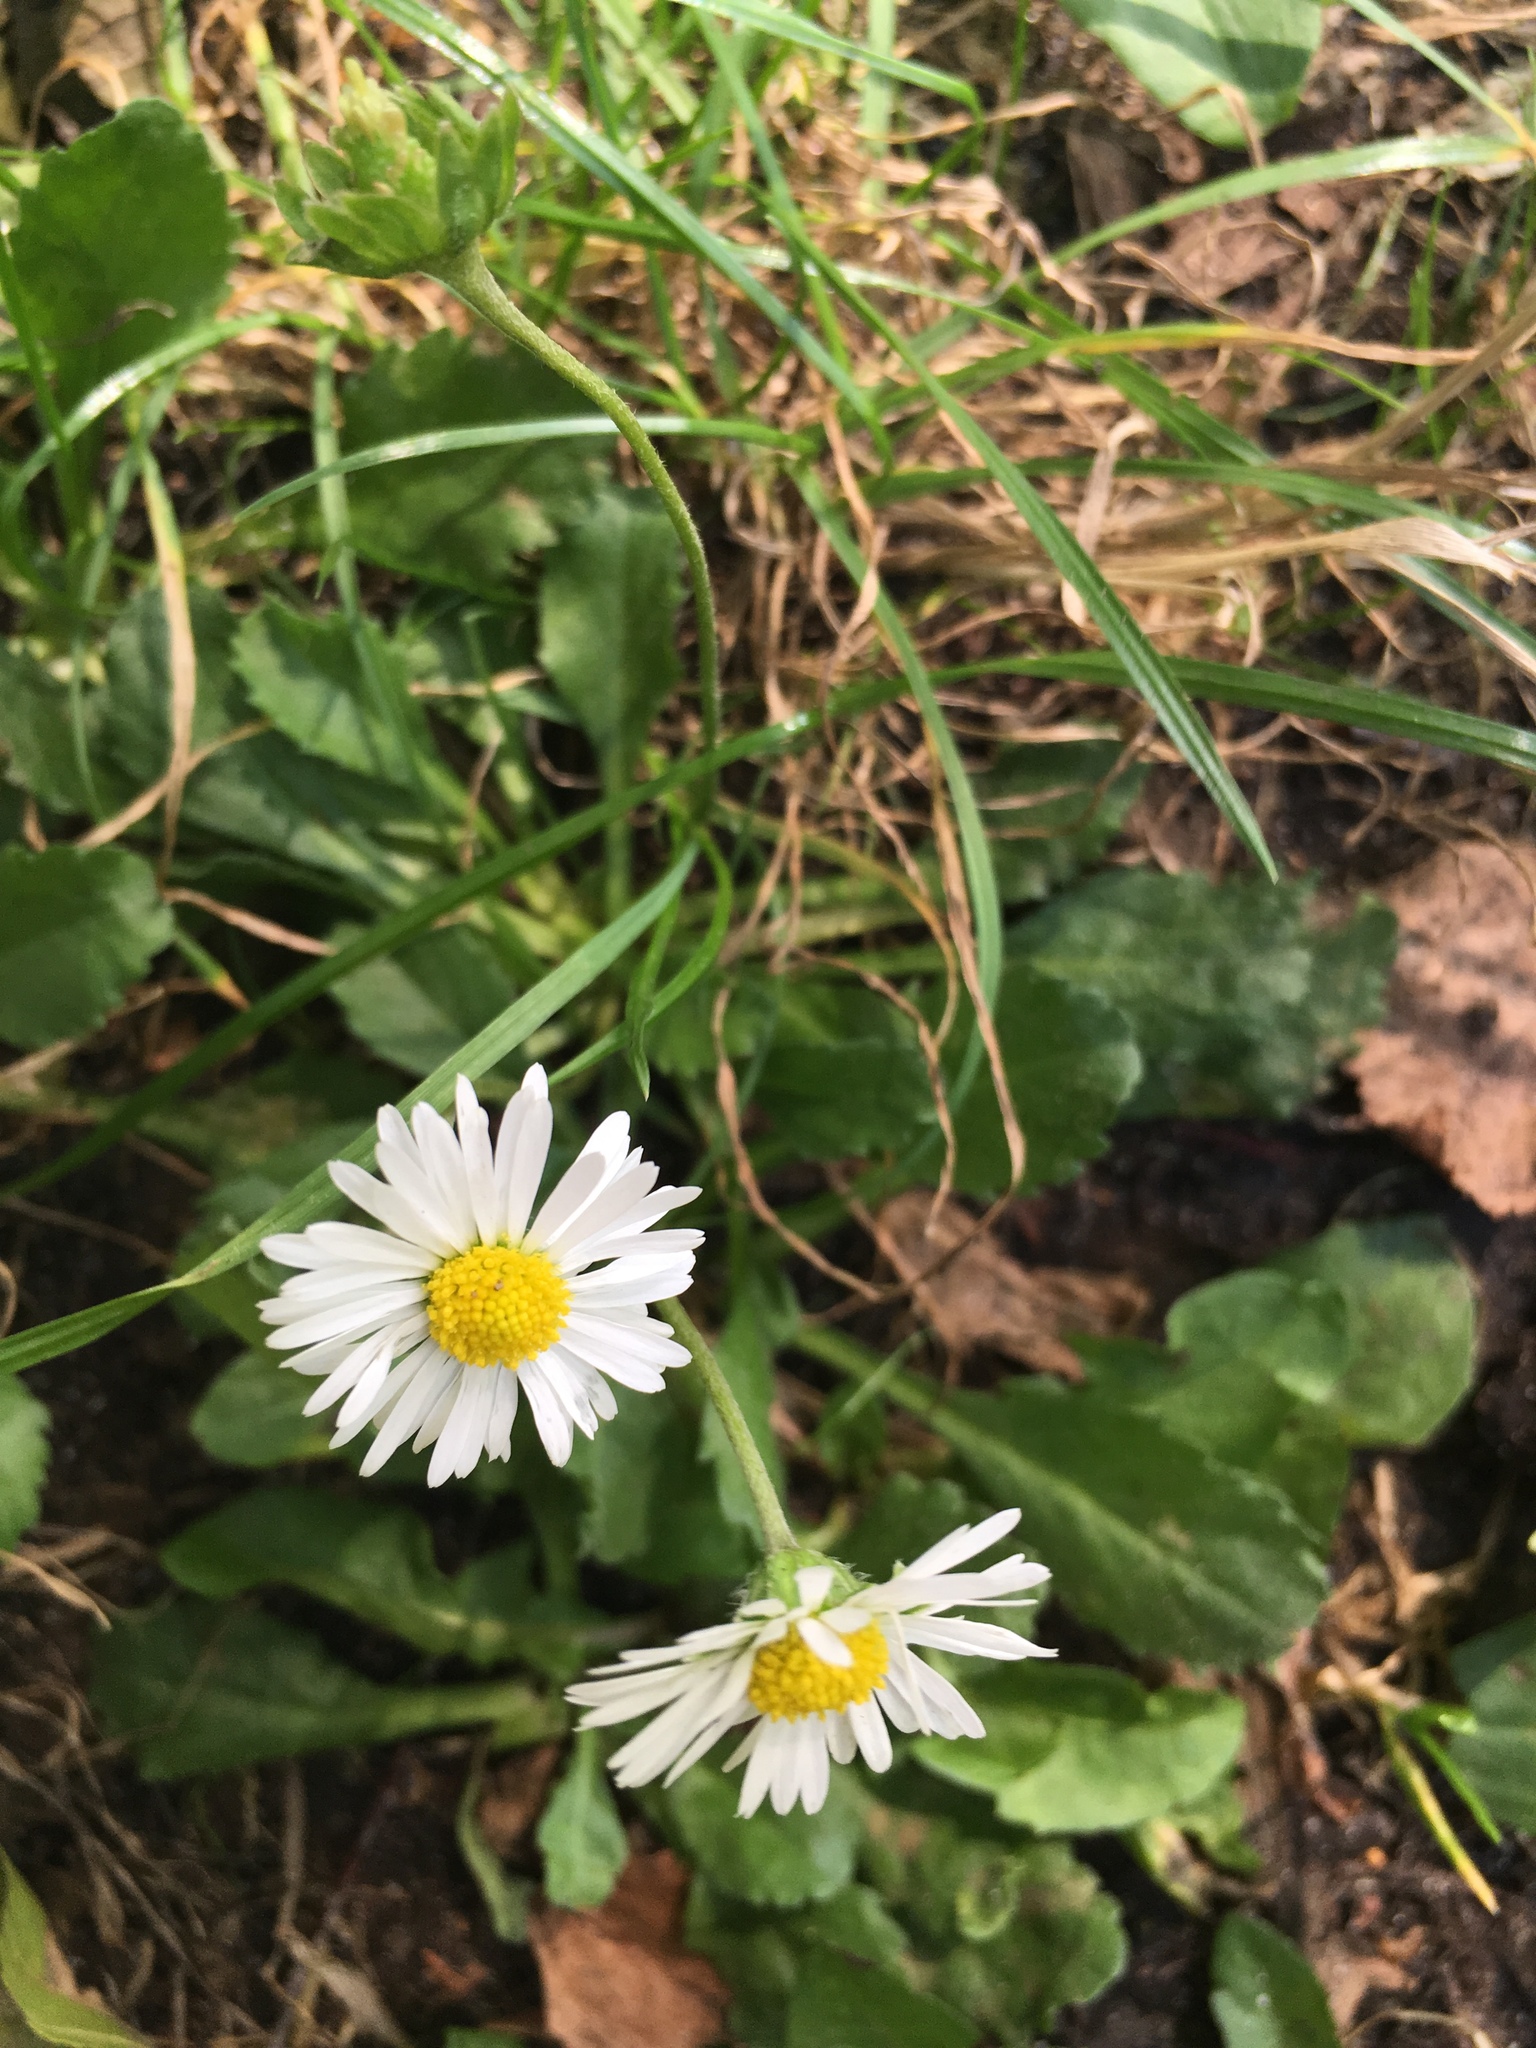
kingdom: Plantae
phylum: Tracheophyta
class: Magnoliopsida
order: Asterales
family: Asteraceae
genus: Bellis
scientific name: Bellis perennis
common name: Lawndaisy
